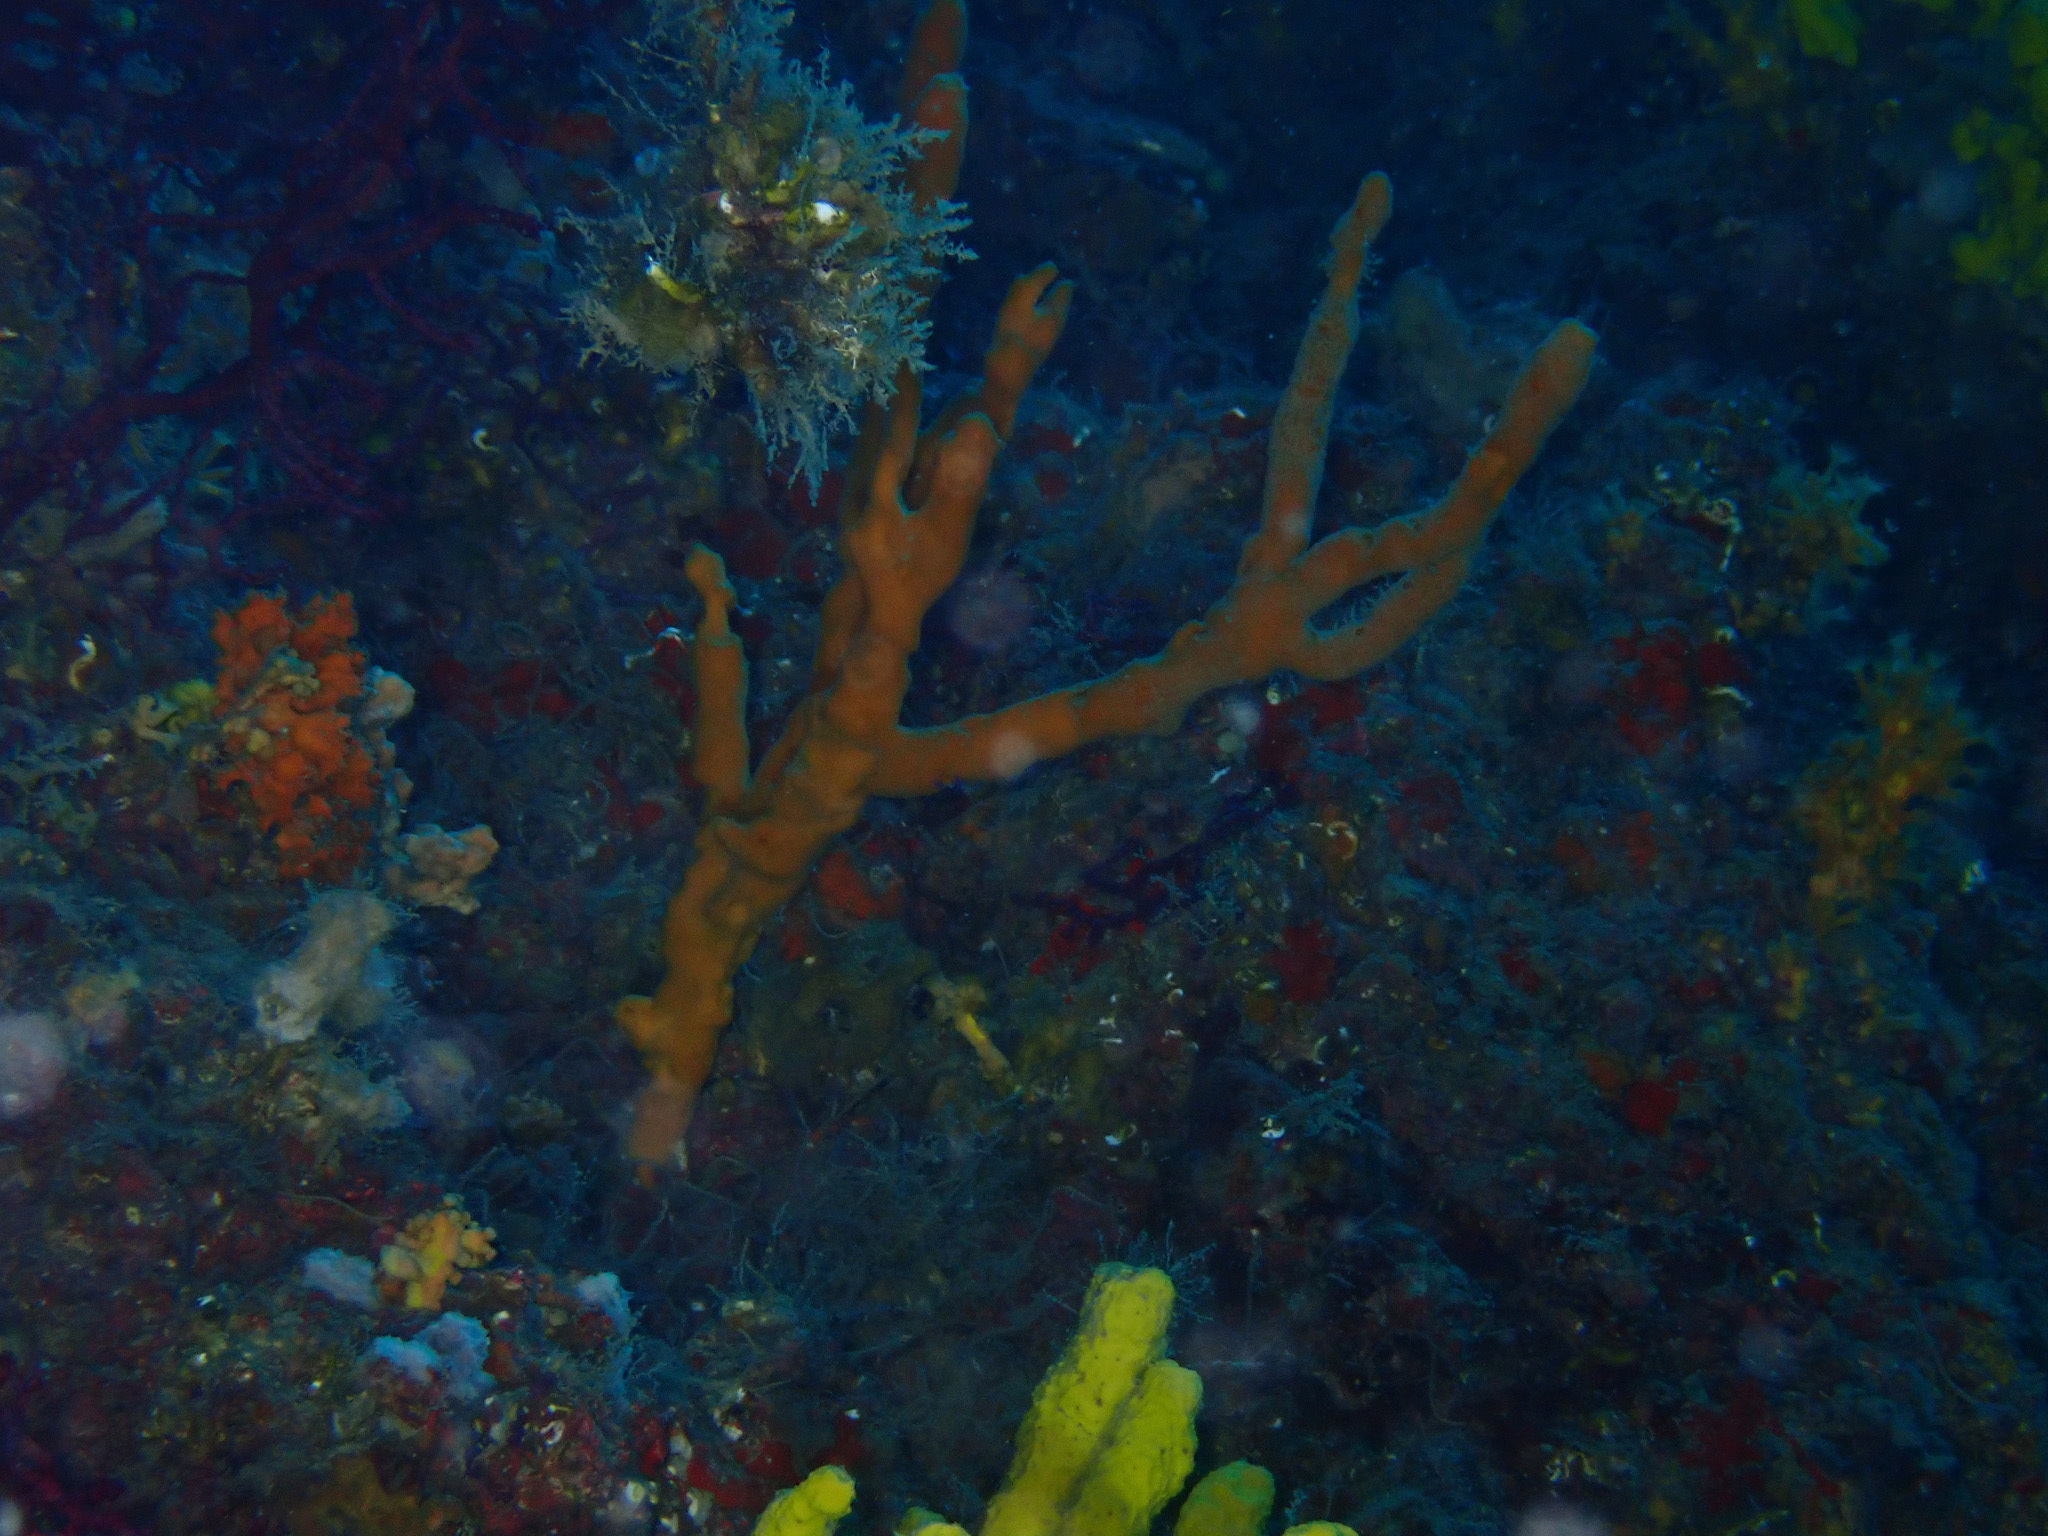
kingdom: Animalia
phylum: Porifera
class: Demospongiae
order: Axinellida
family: Axinellidae
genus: Axinella
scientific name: Axinella cannabina
